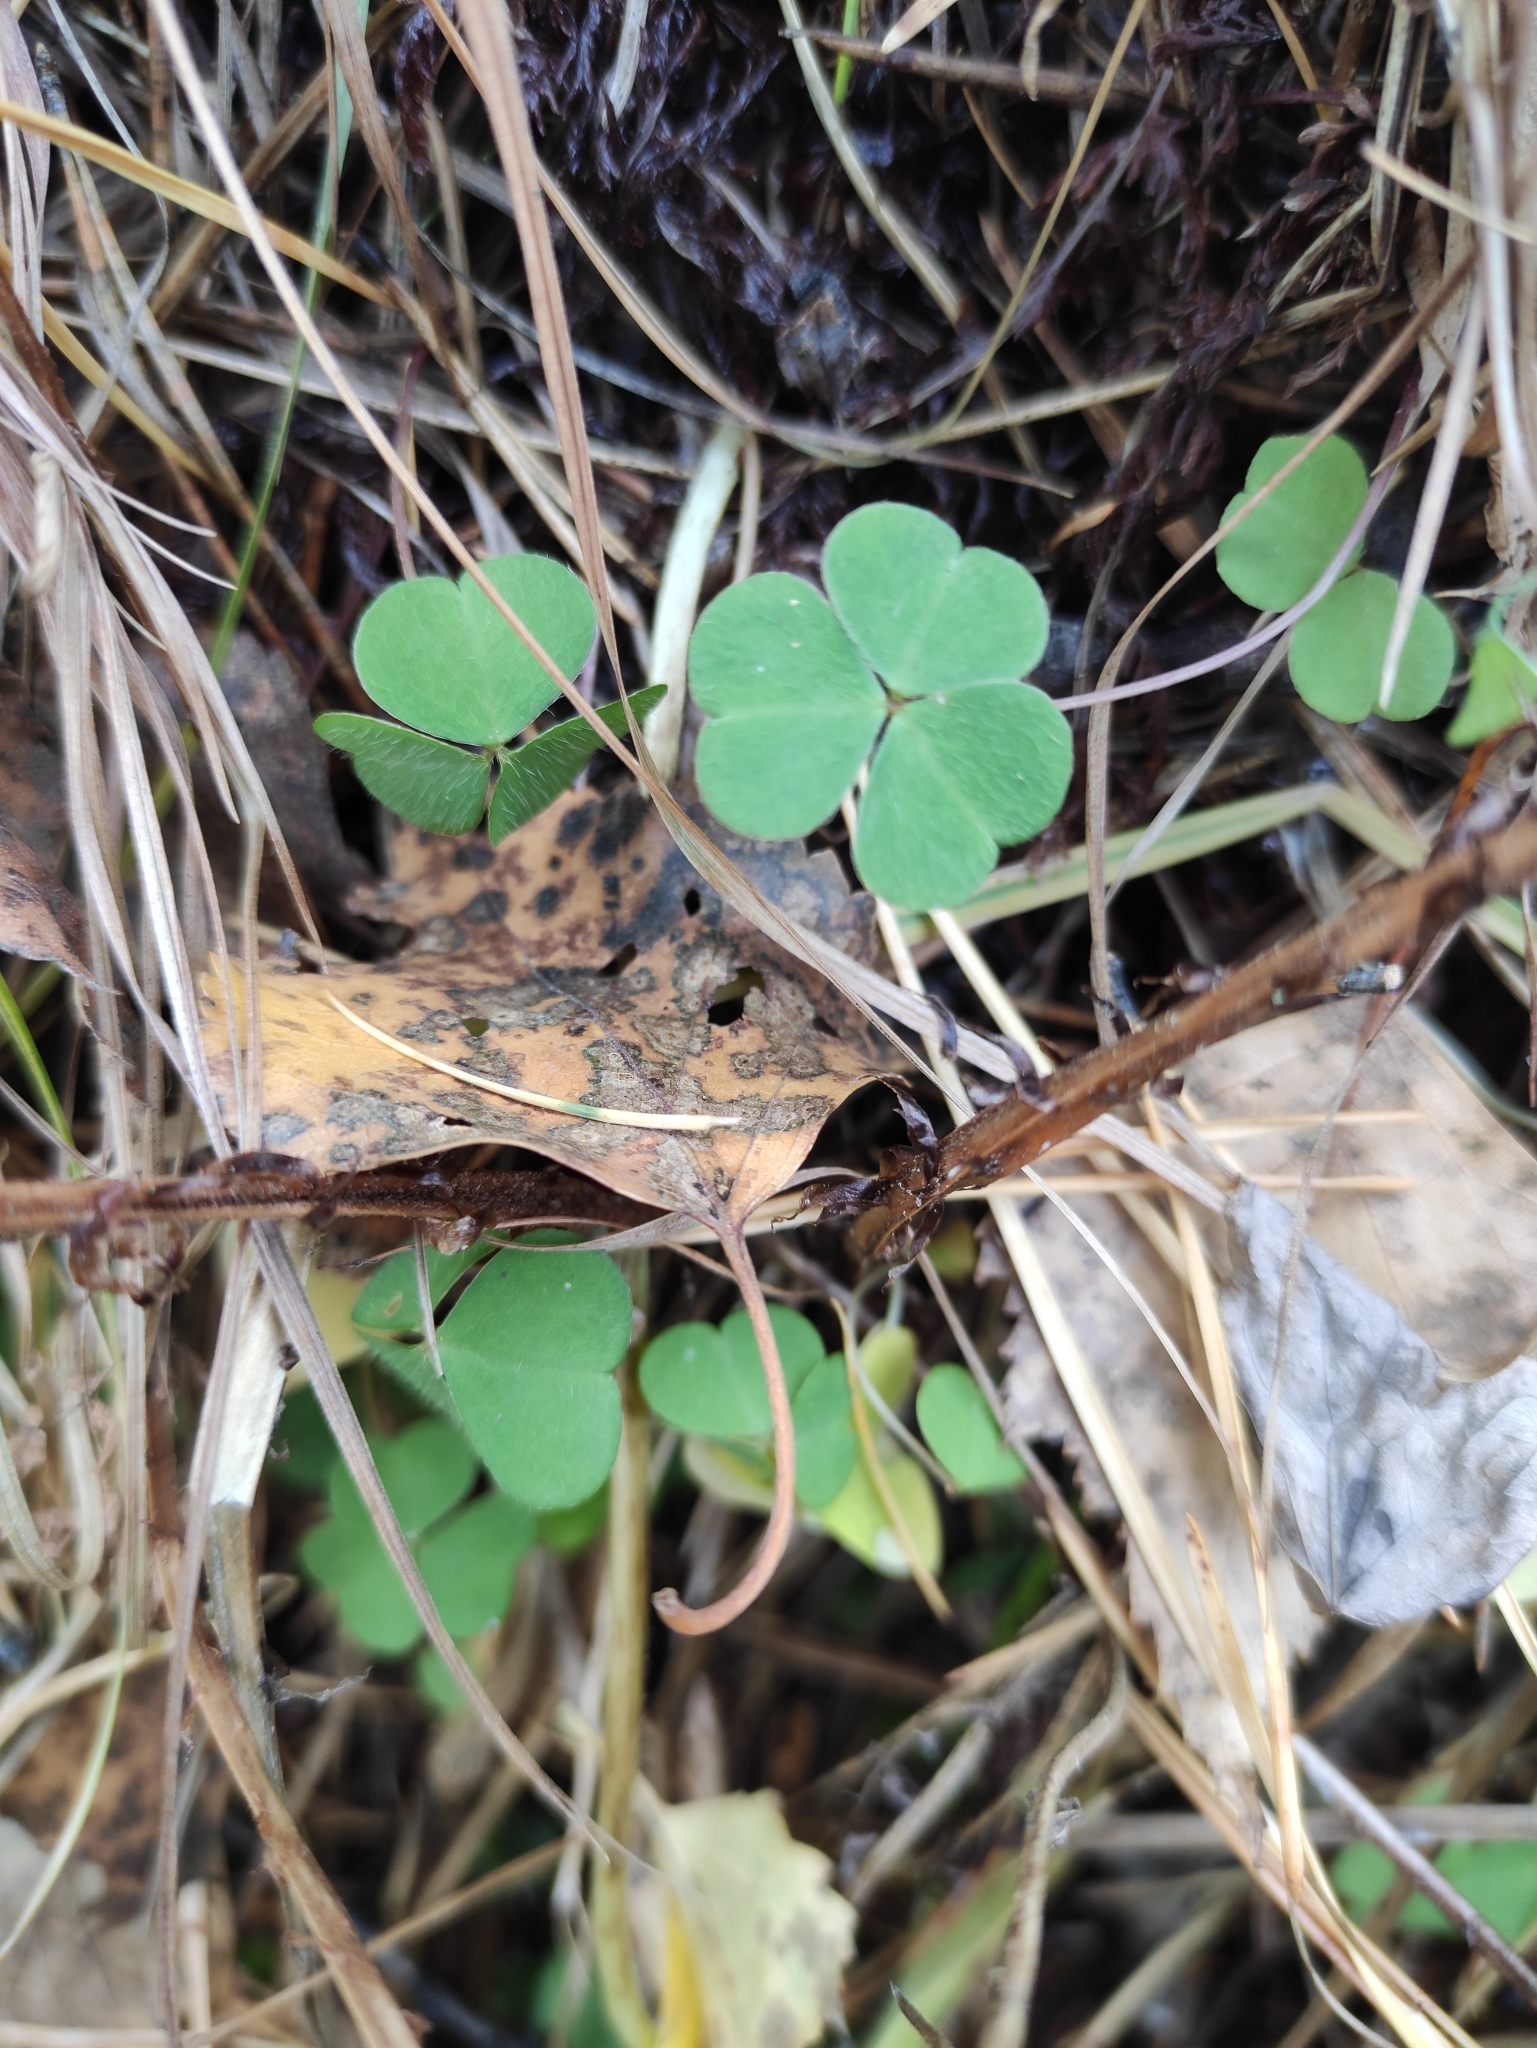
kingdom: Plantae
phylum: Tracheophyta
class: Magnoliopsida
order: Oxalidales
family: Oxalidaceae
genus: Oxalis
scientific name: Oxalis acetosella
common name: Wood-sorrel
